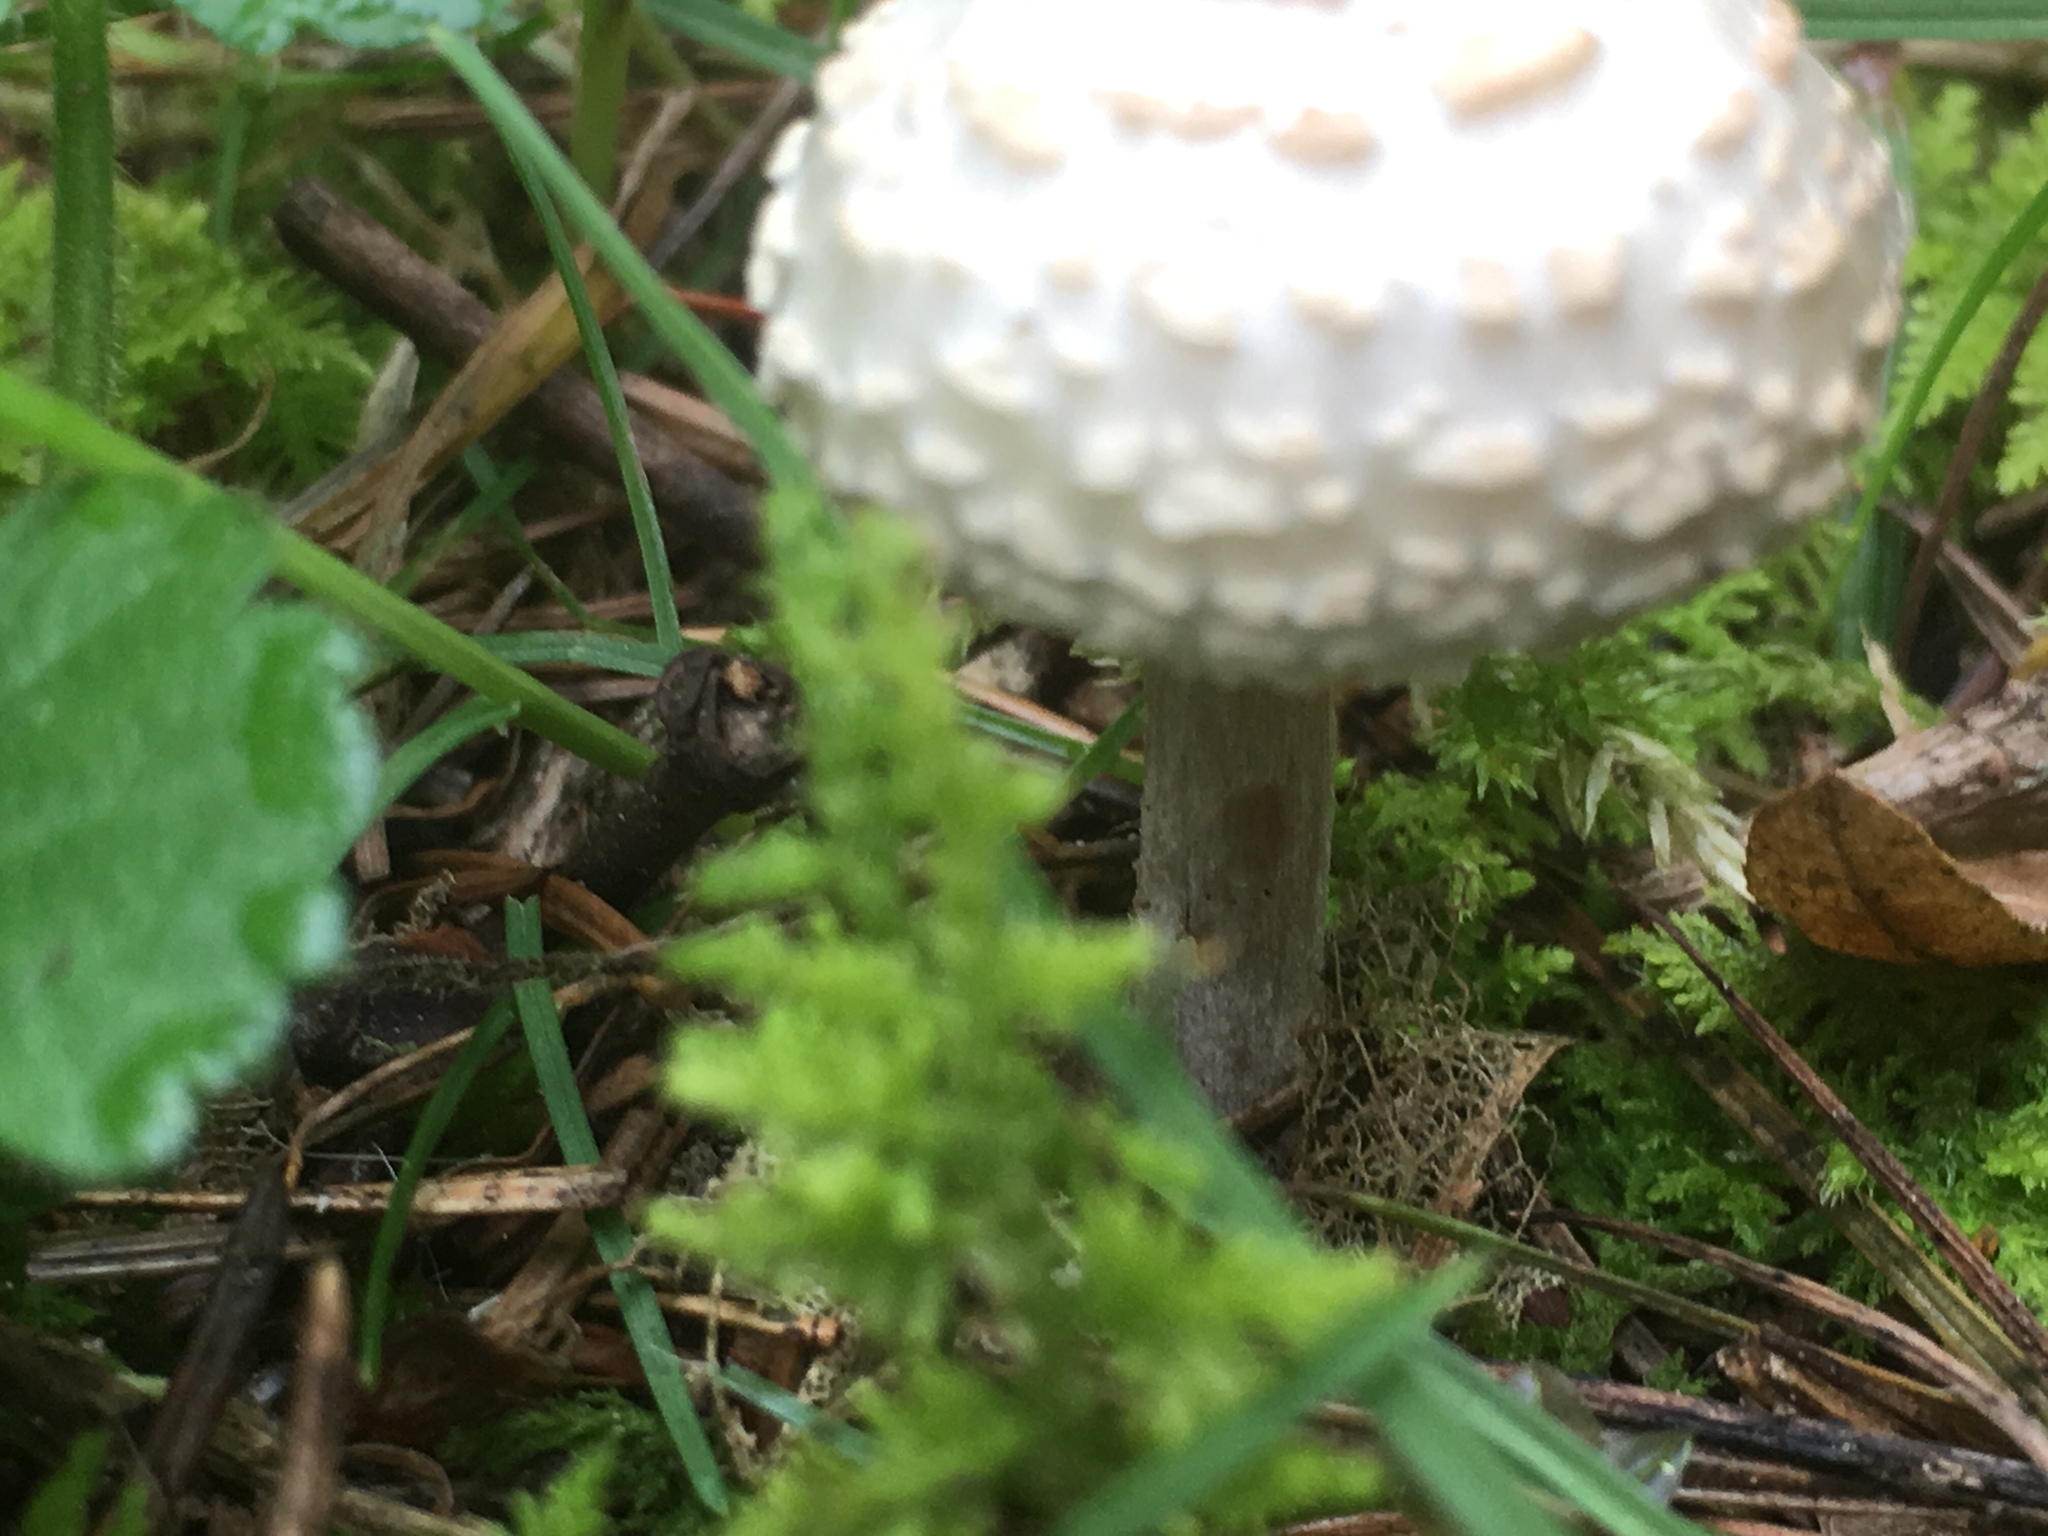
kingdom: Fungi
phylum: Basidiomycota
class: Agaricomycetes
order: Agaricales
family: Agaricaceae
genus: Chlorophyllum
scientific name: Chlorophyllum rhacodes
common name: Shaggy parasol
